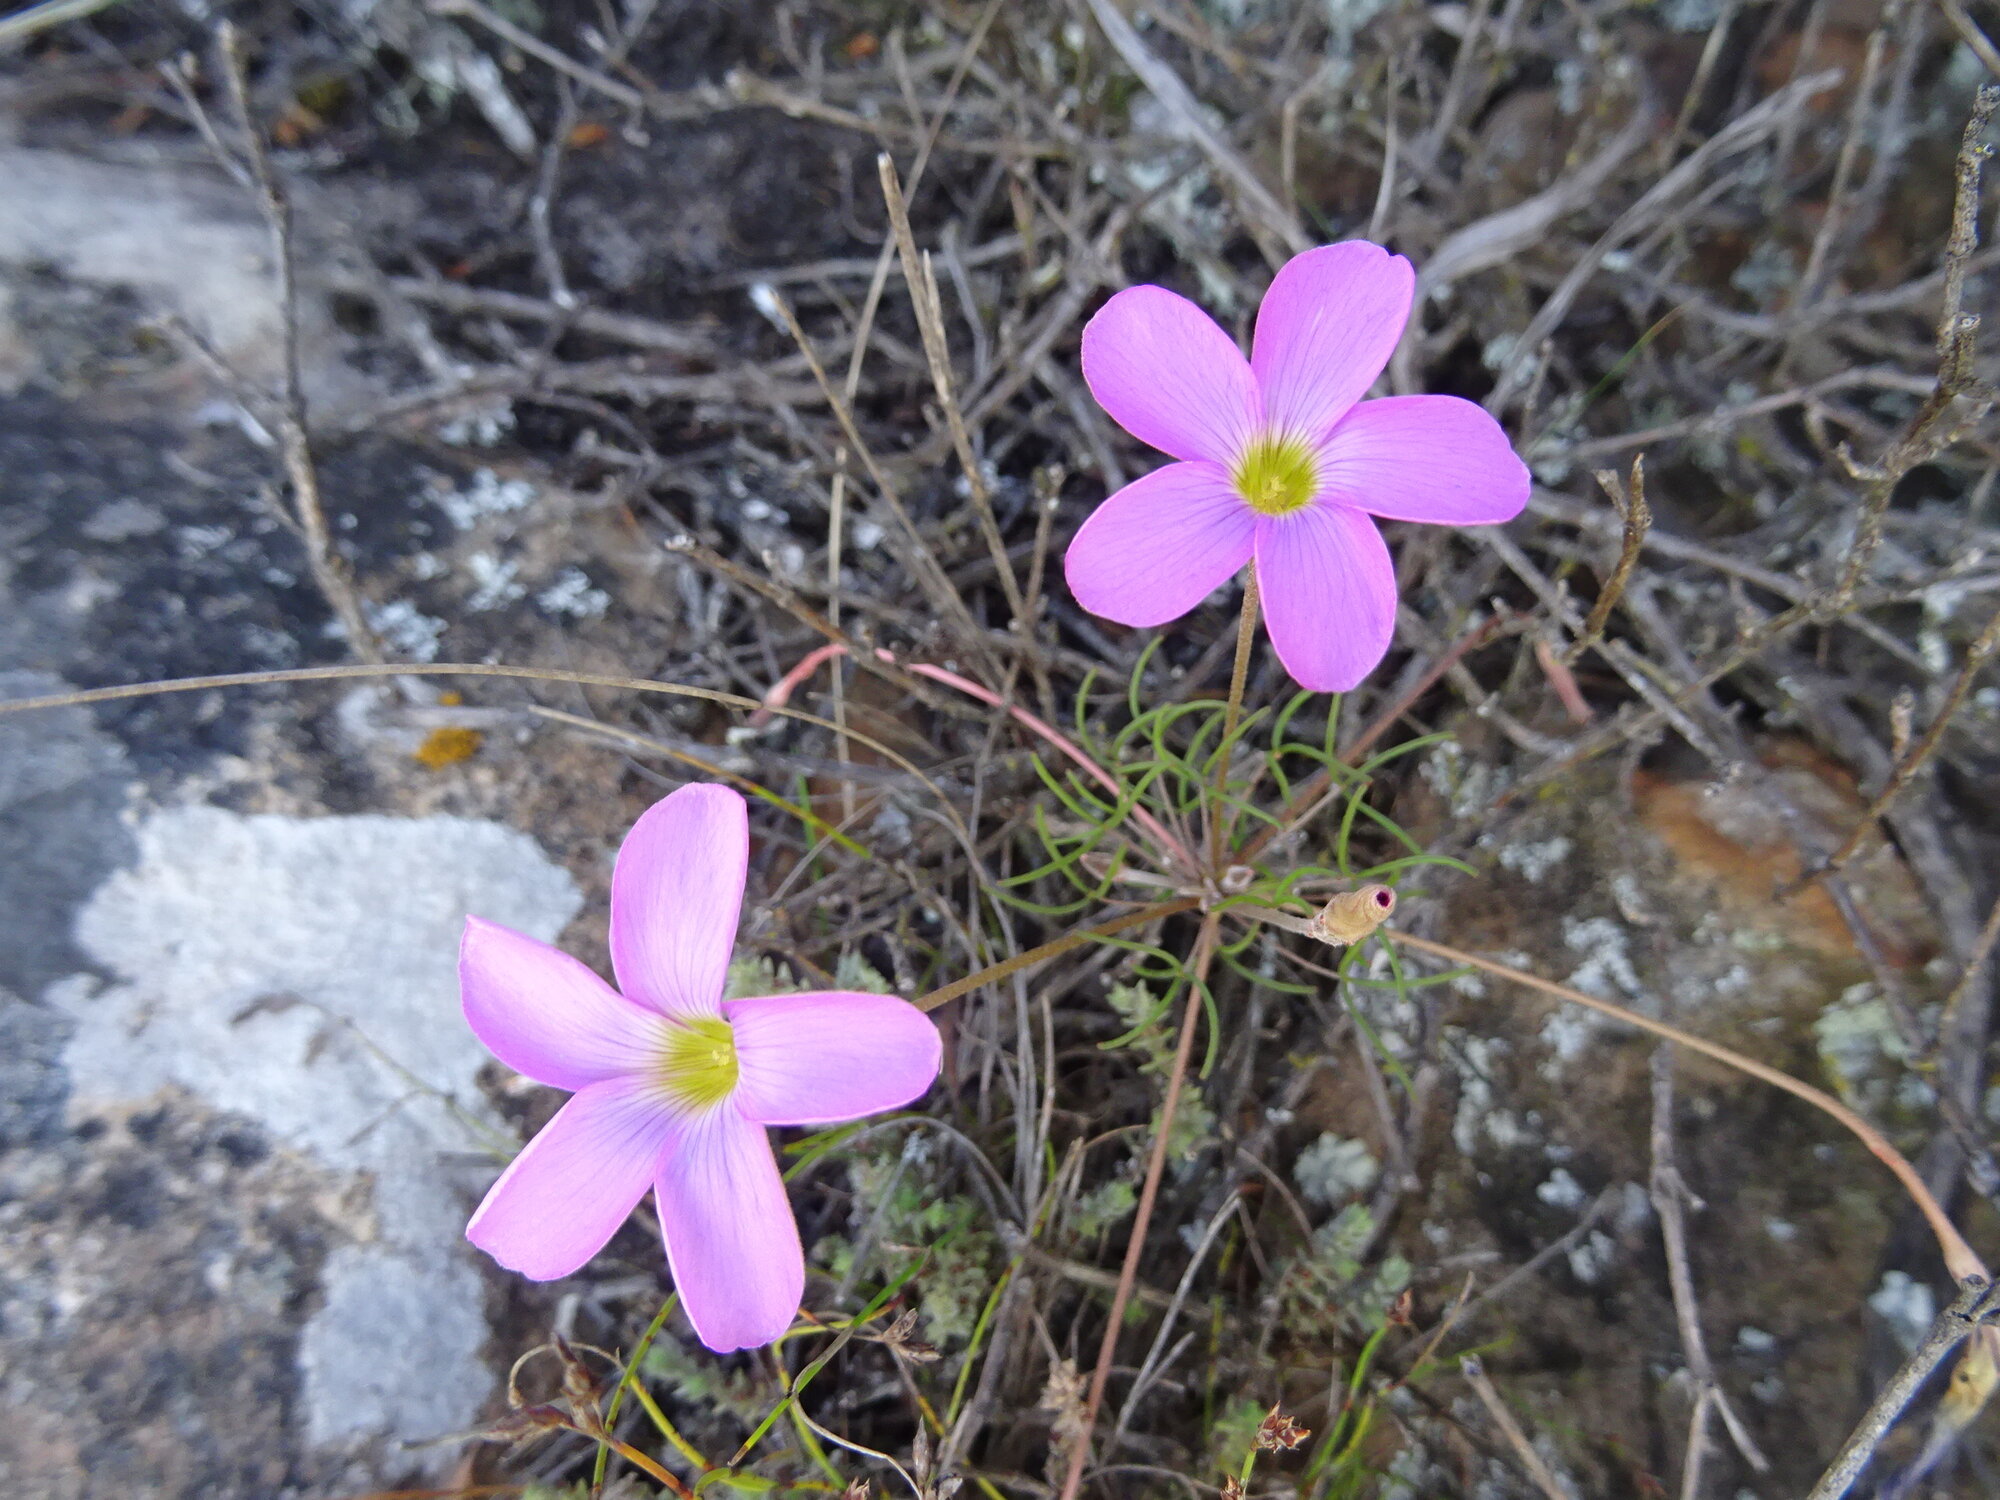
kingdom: Plantae
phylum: Tracheophyta
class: Magnoliopsida
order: Oxalidales
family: Oxalidaceae
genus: Oxalis
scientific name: Oxalis polyphylla
